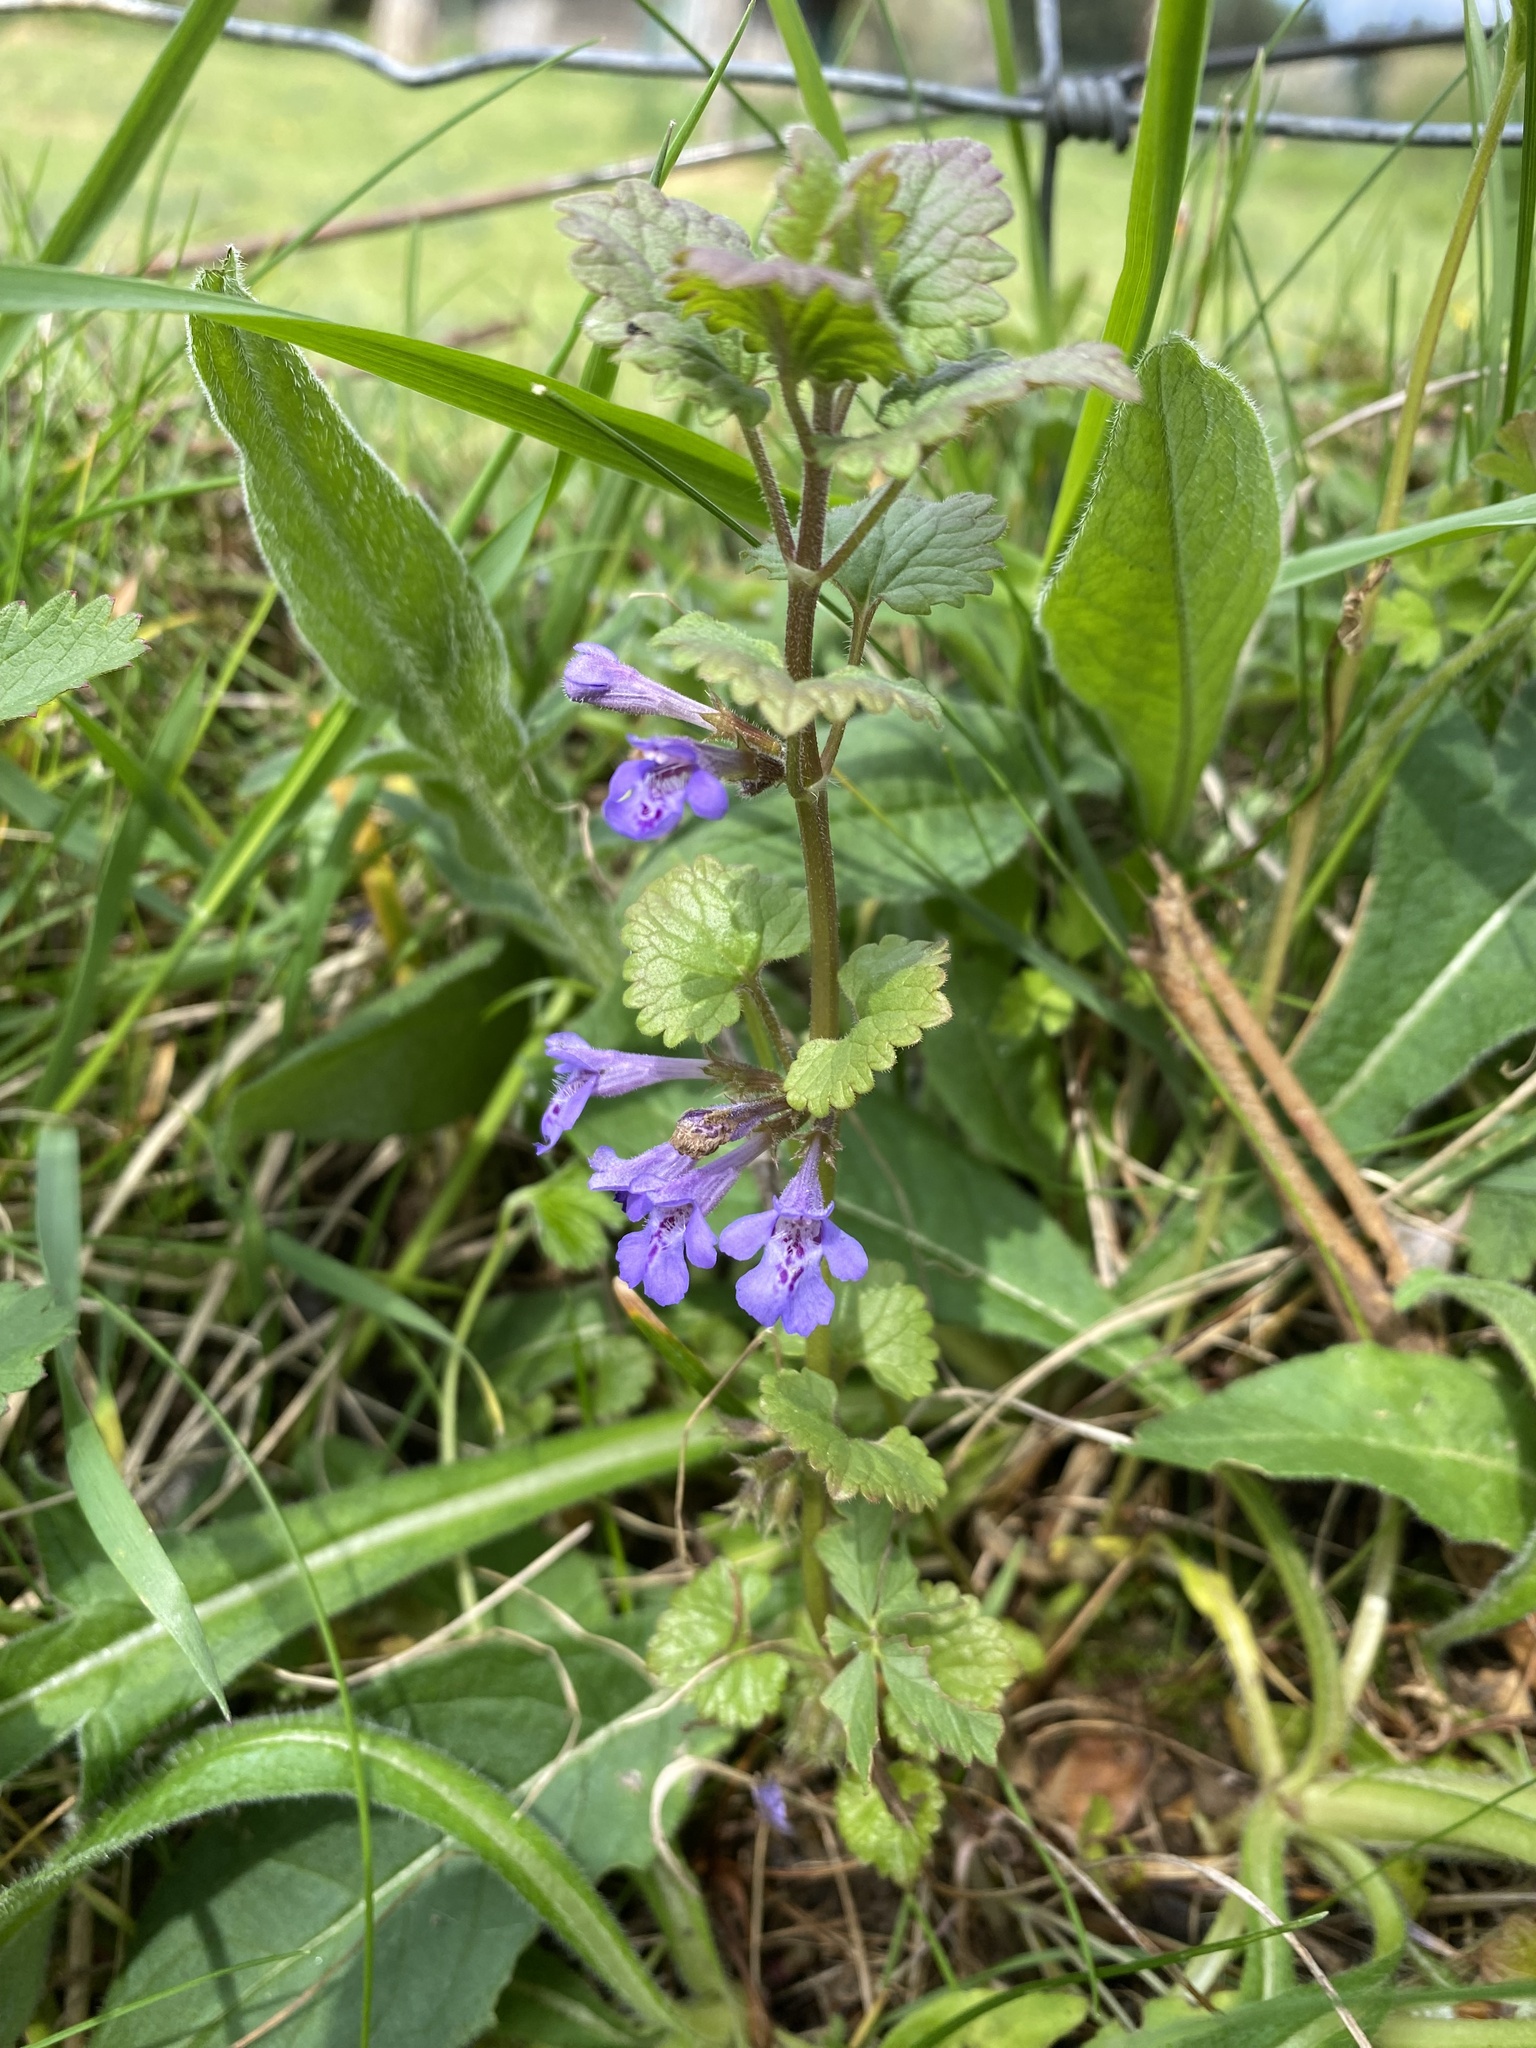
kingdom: Plantae
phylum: Tracheophyta
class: Magnoliopsida
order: Lamiales
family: Lamiaceae
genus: Glechoma
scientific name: Glechoma hederacea
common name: Ground ivy
